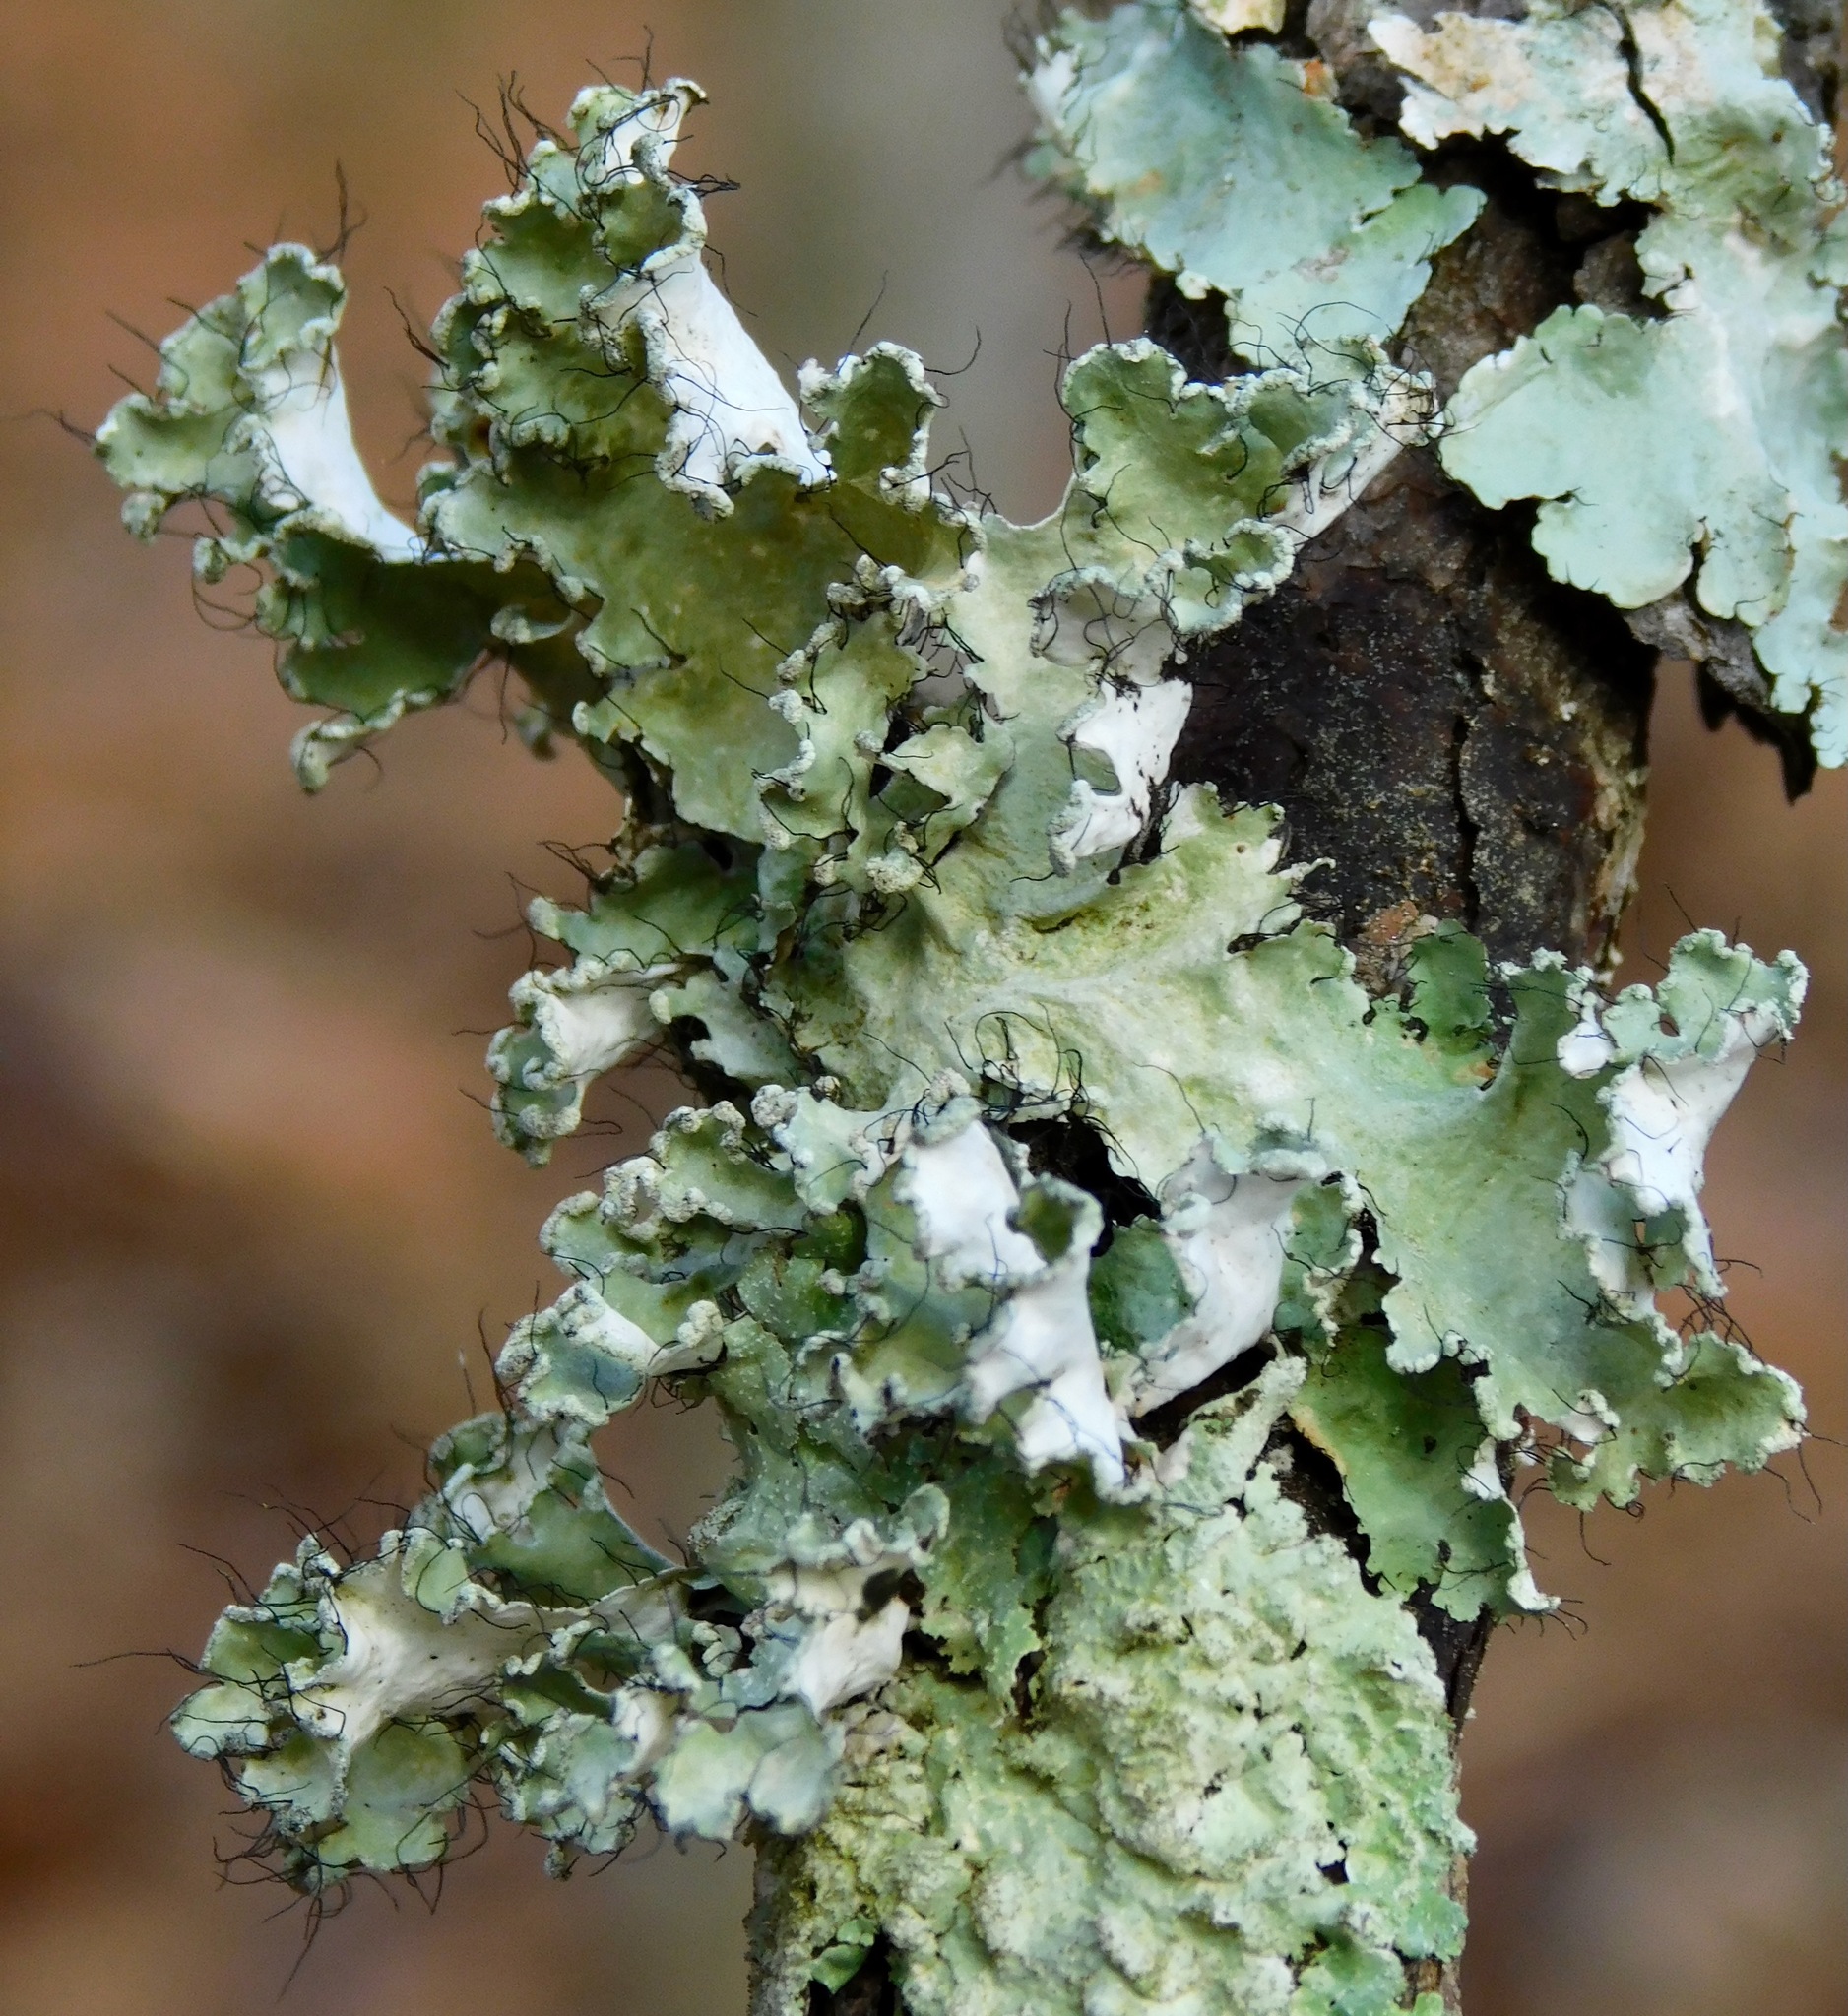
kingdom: Fungi
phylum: Ascomycota
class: Lecanoromycetes
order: Lecanorales
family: Parmeliaceae
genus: Parmotrema
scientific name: Parmotrema hypotropum
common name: Powdered ruffle lichen
